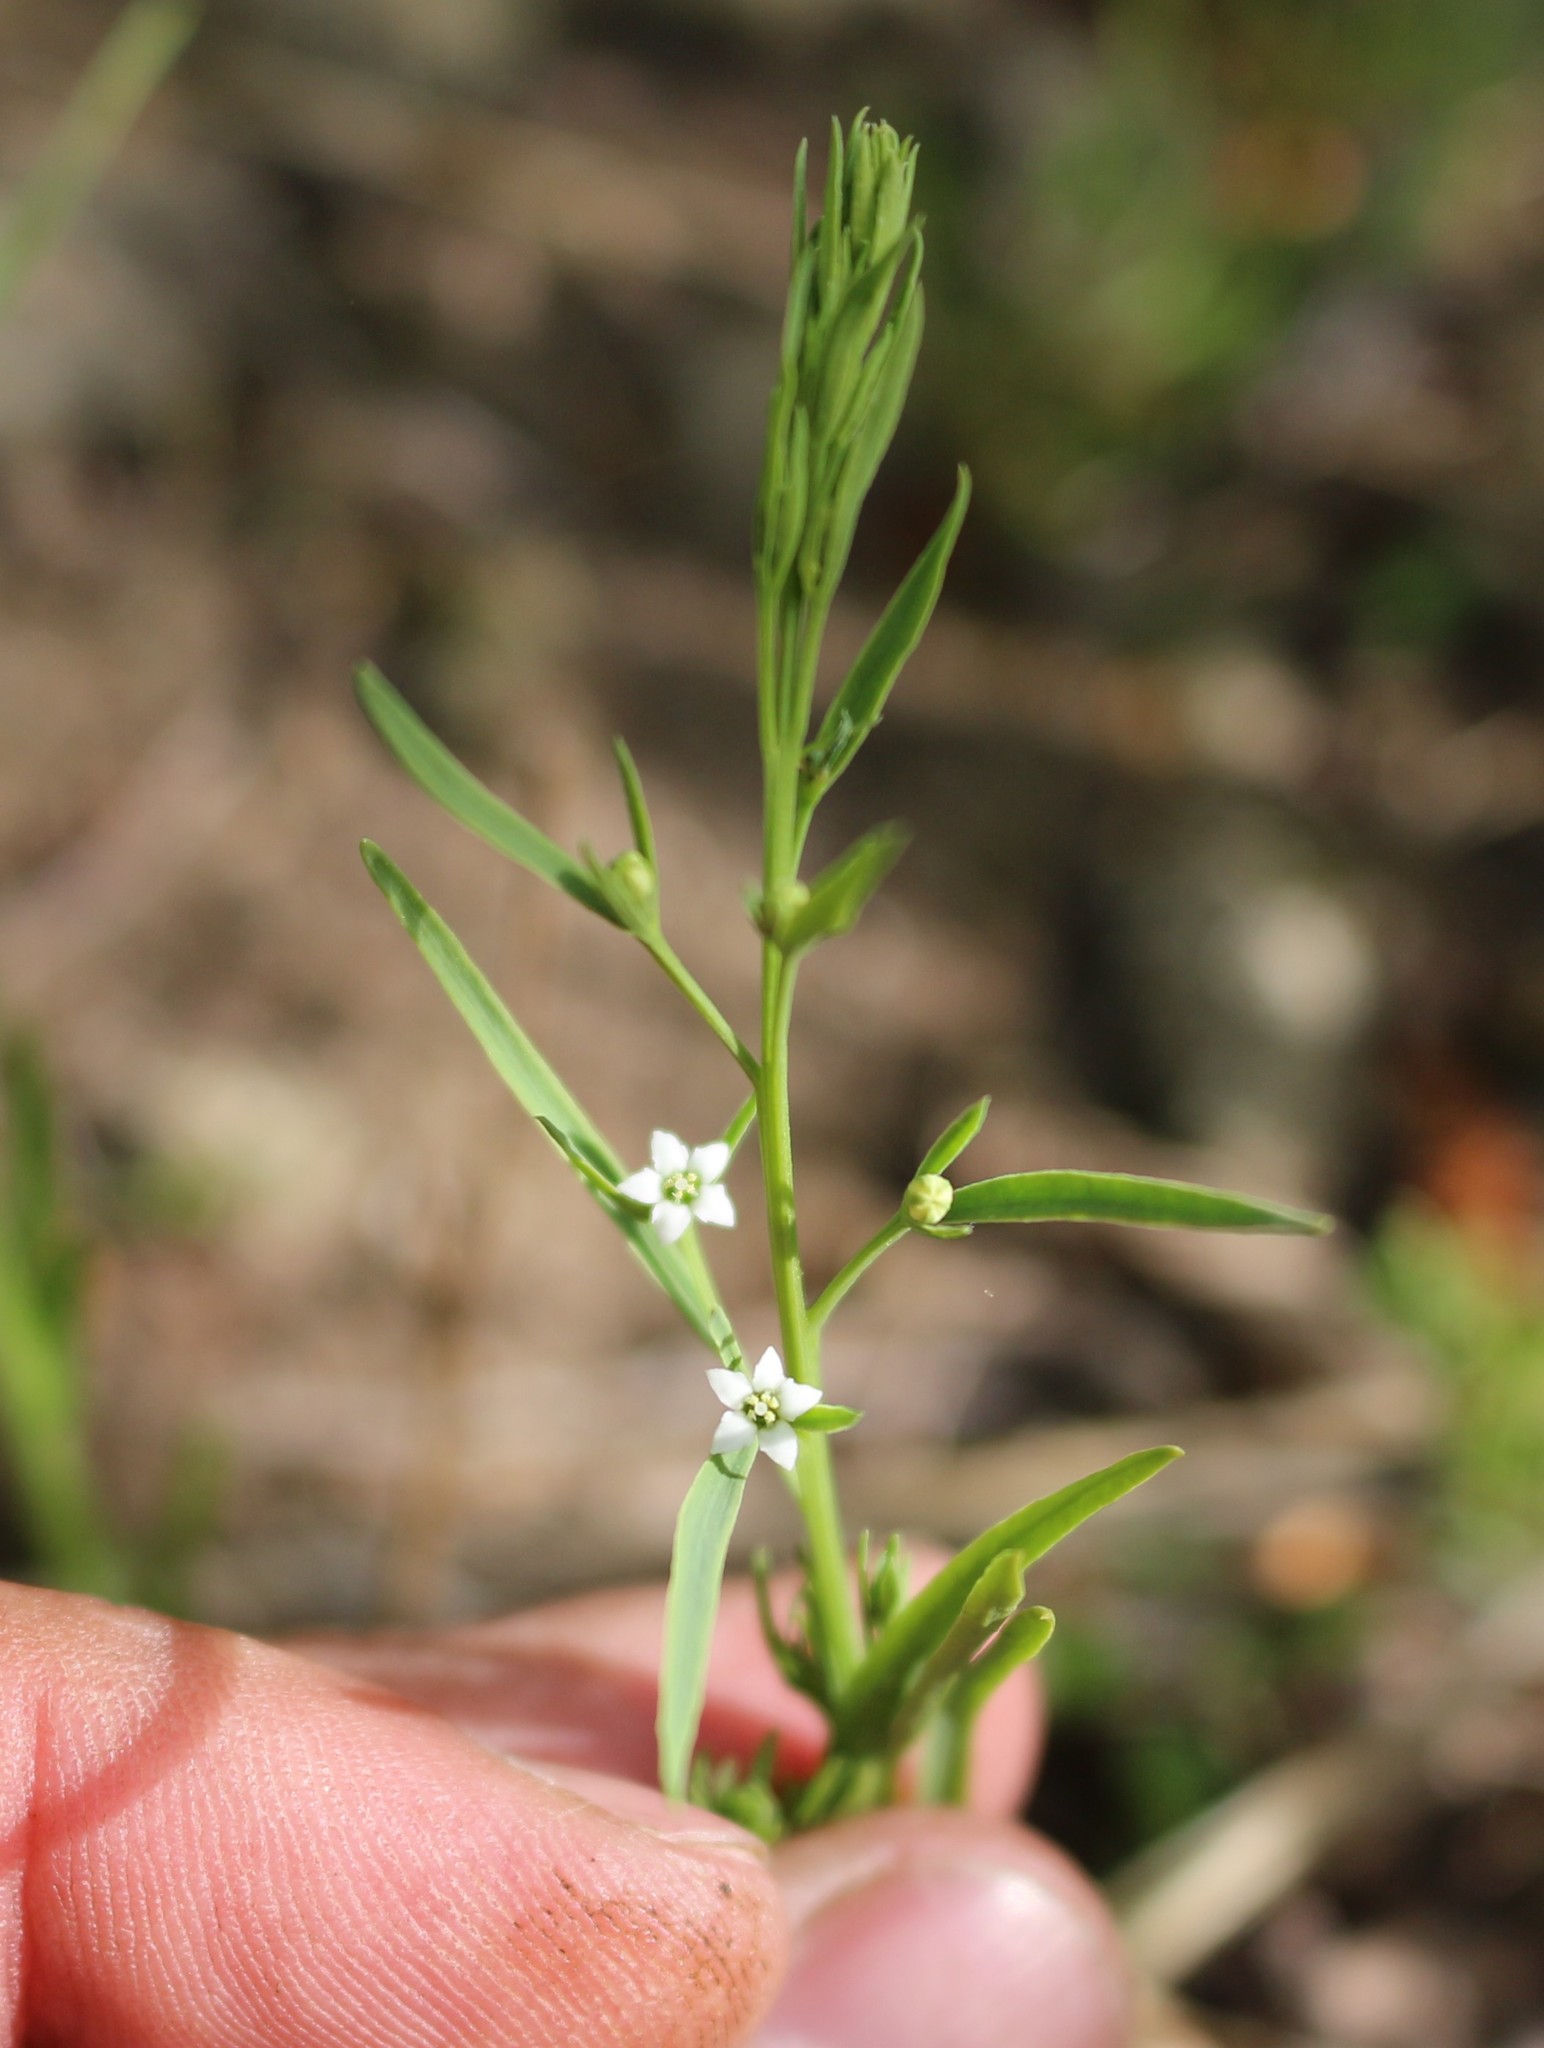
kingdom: Plantae
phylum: Tracheophyta
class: Magnoliopsida
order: Santalales
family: Thesiaceae
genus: Thesium
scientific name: Thesium ramosum
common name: Field thesium
